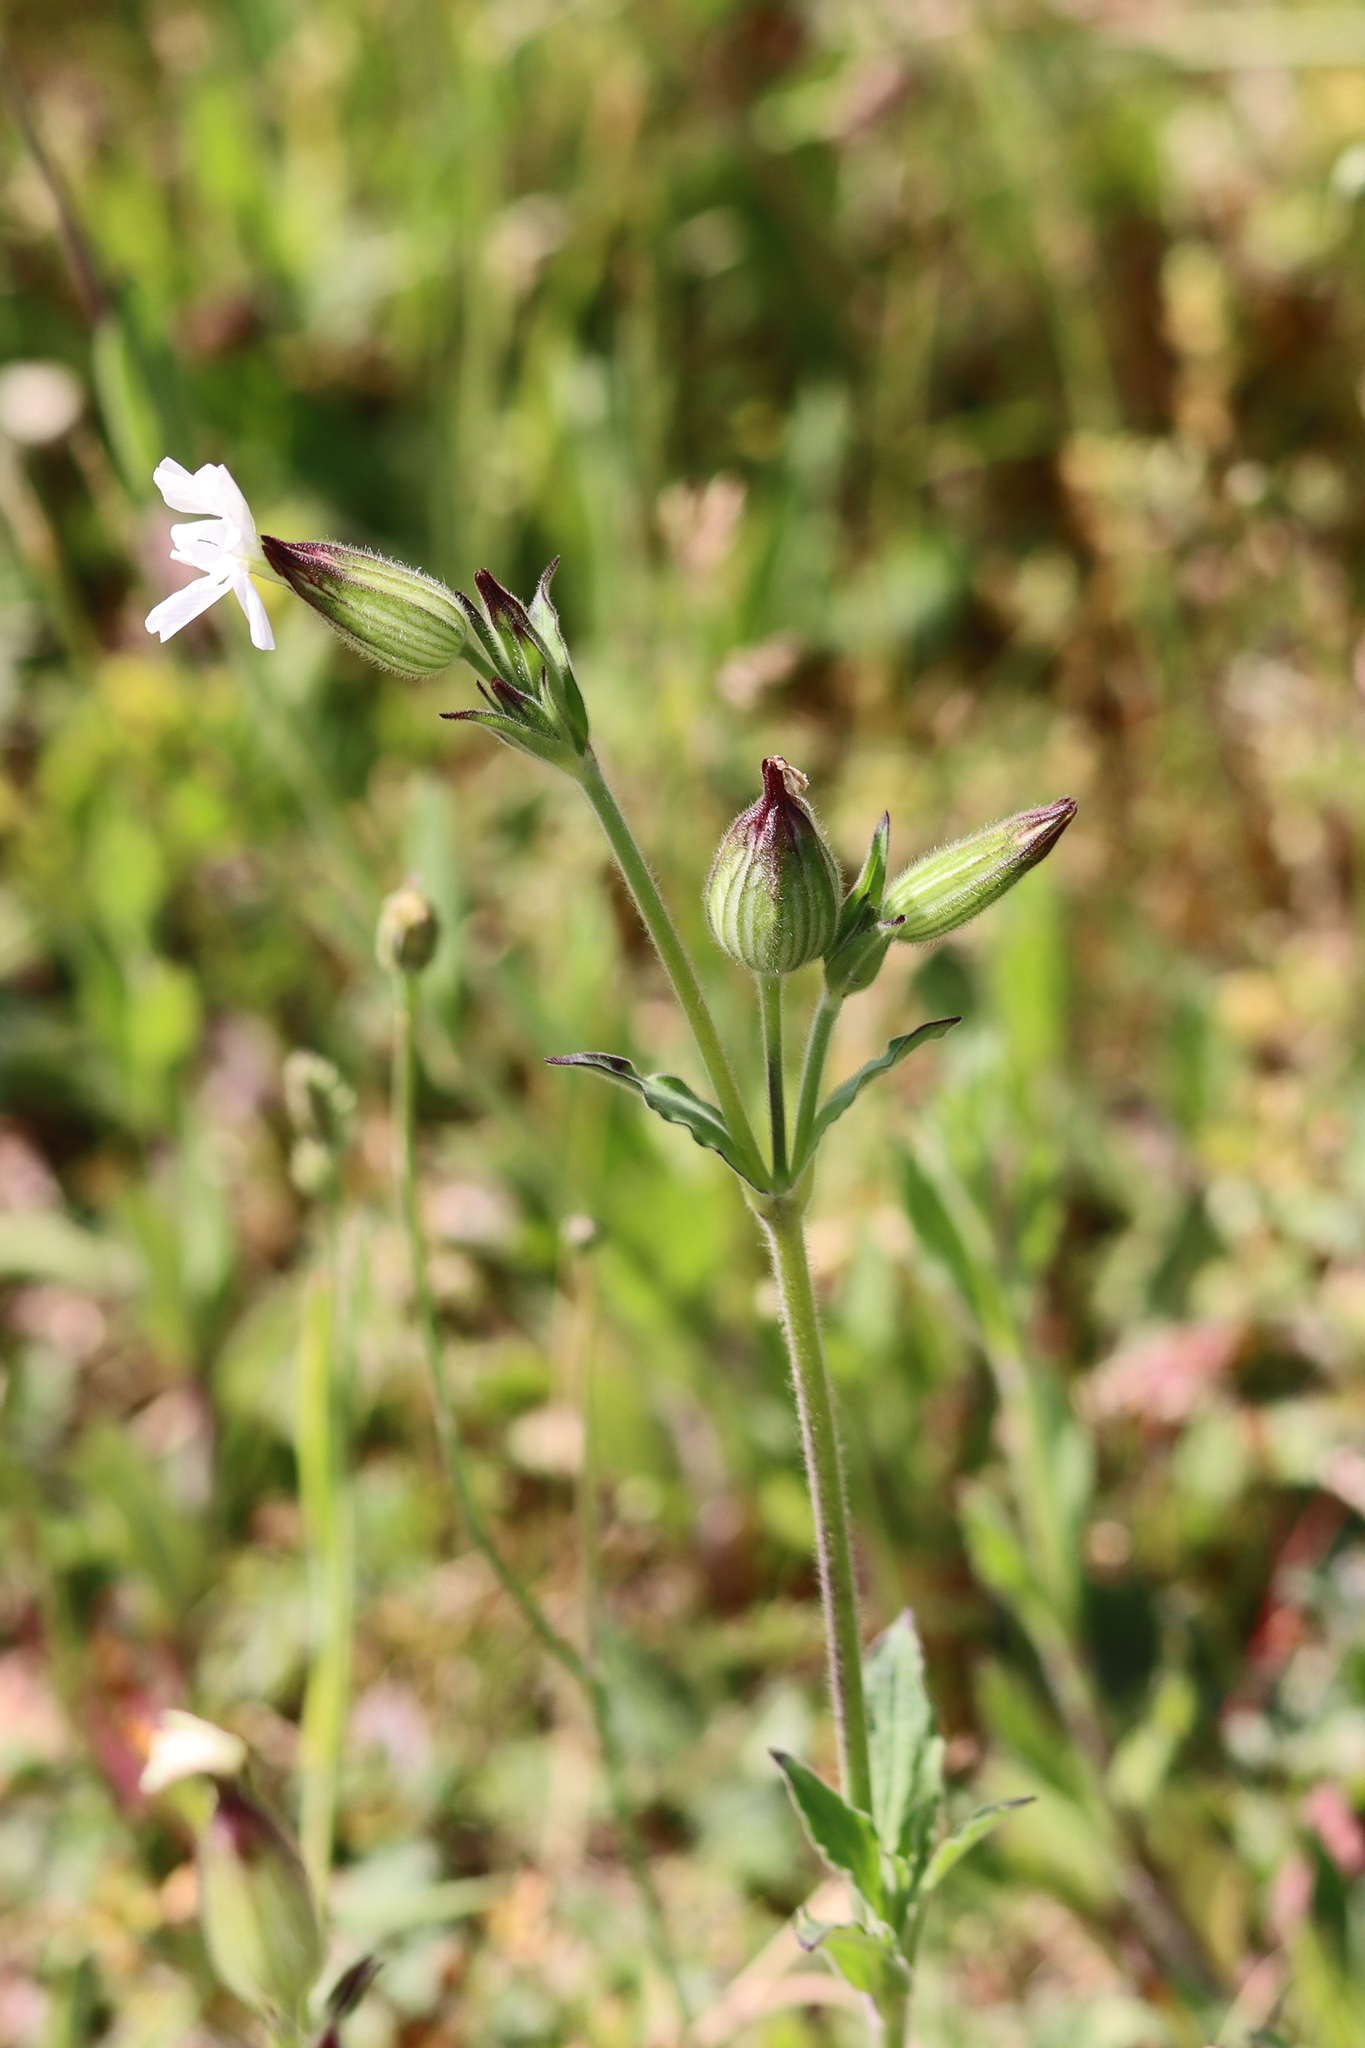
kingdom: Plantae
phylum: Tracheophyta
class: Magnoliopsida
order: Caryophyllales
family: Caryophyllaceae
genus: Silene
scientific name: Silene latifolia
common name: White campion
